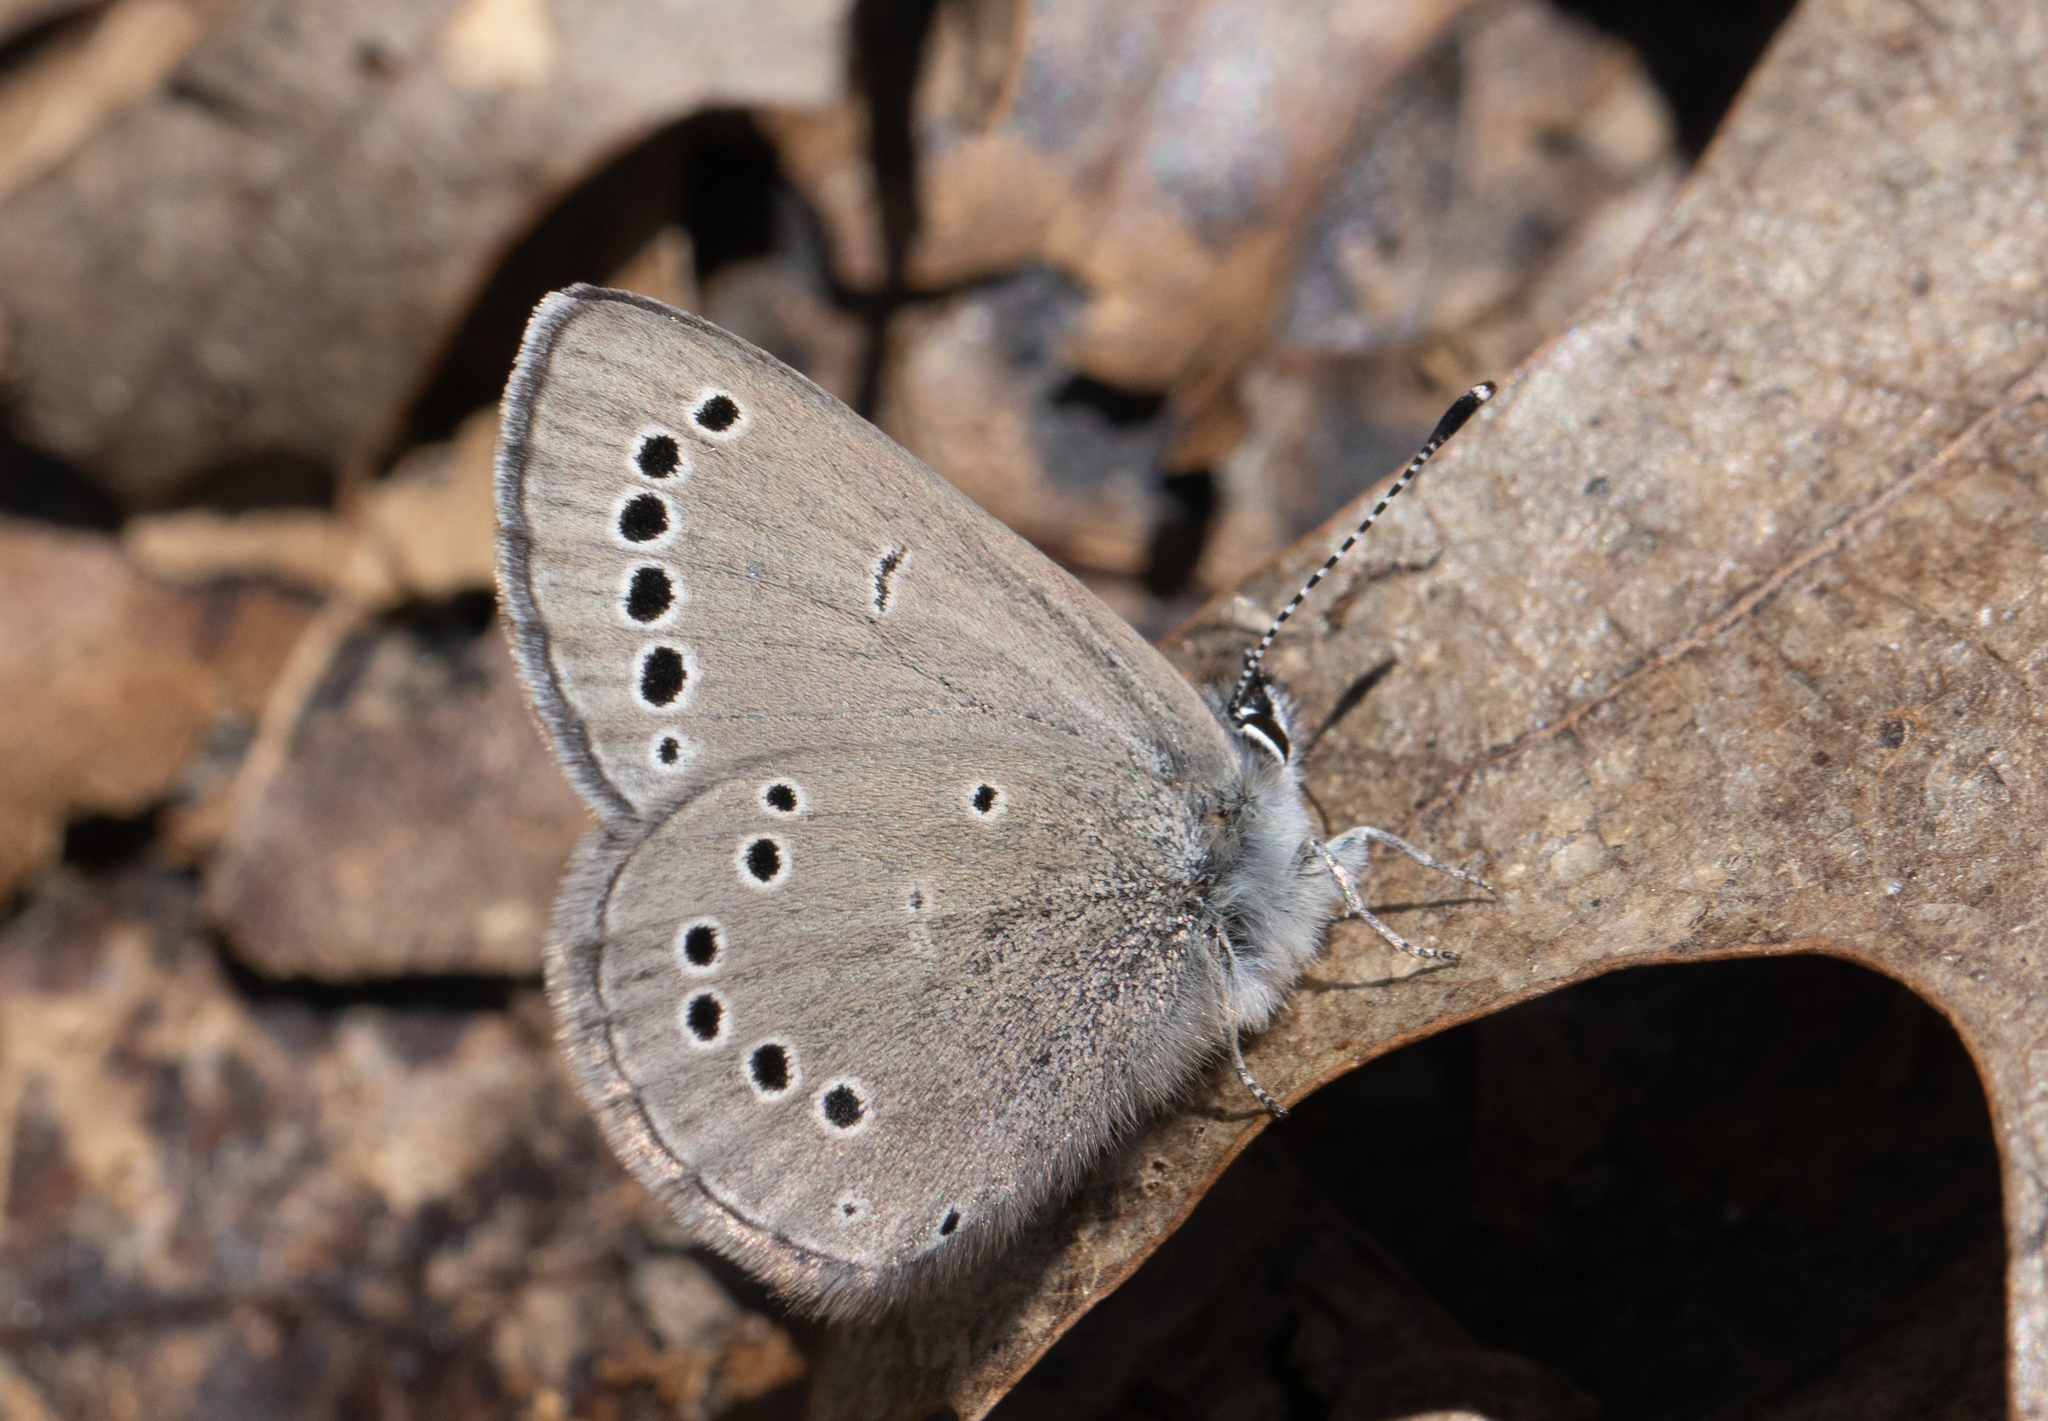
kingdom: Animalia
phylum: Arthropoda
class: Insecta
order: Lepidoptera
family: Lycaenidae
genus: Glaucopsyche
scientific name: Glaucopsyche lygdamus
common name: Silvery blue
